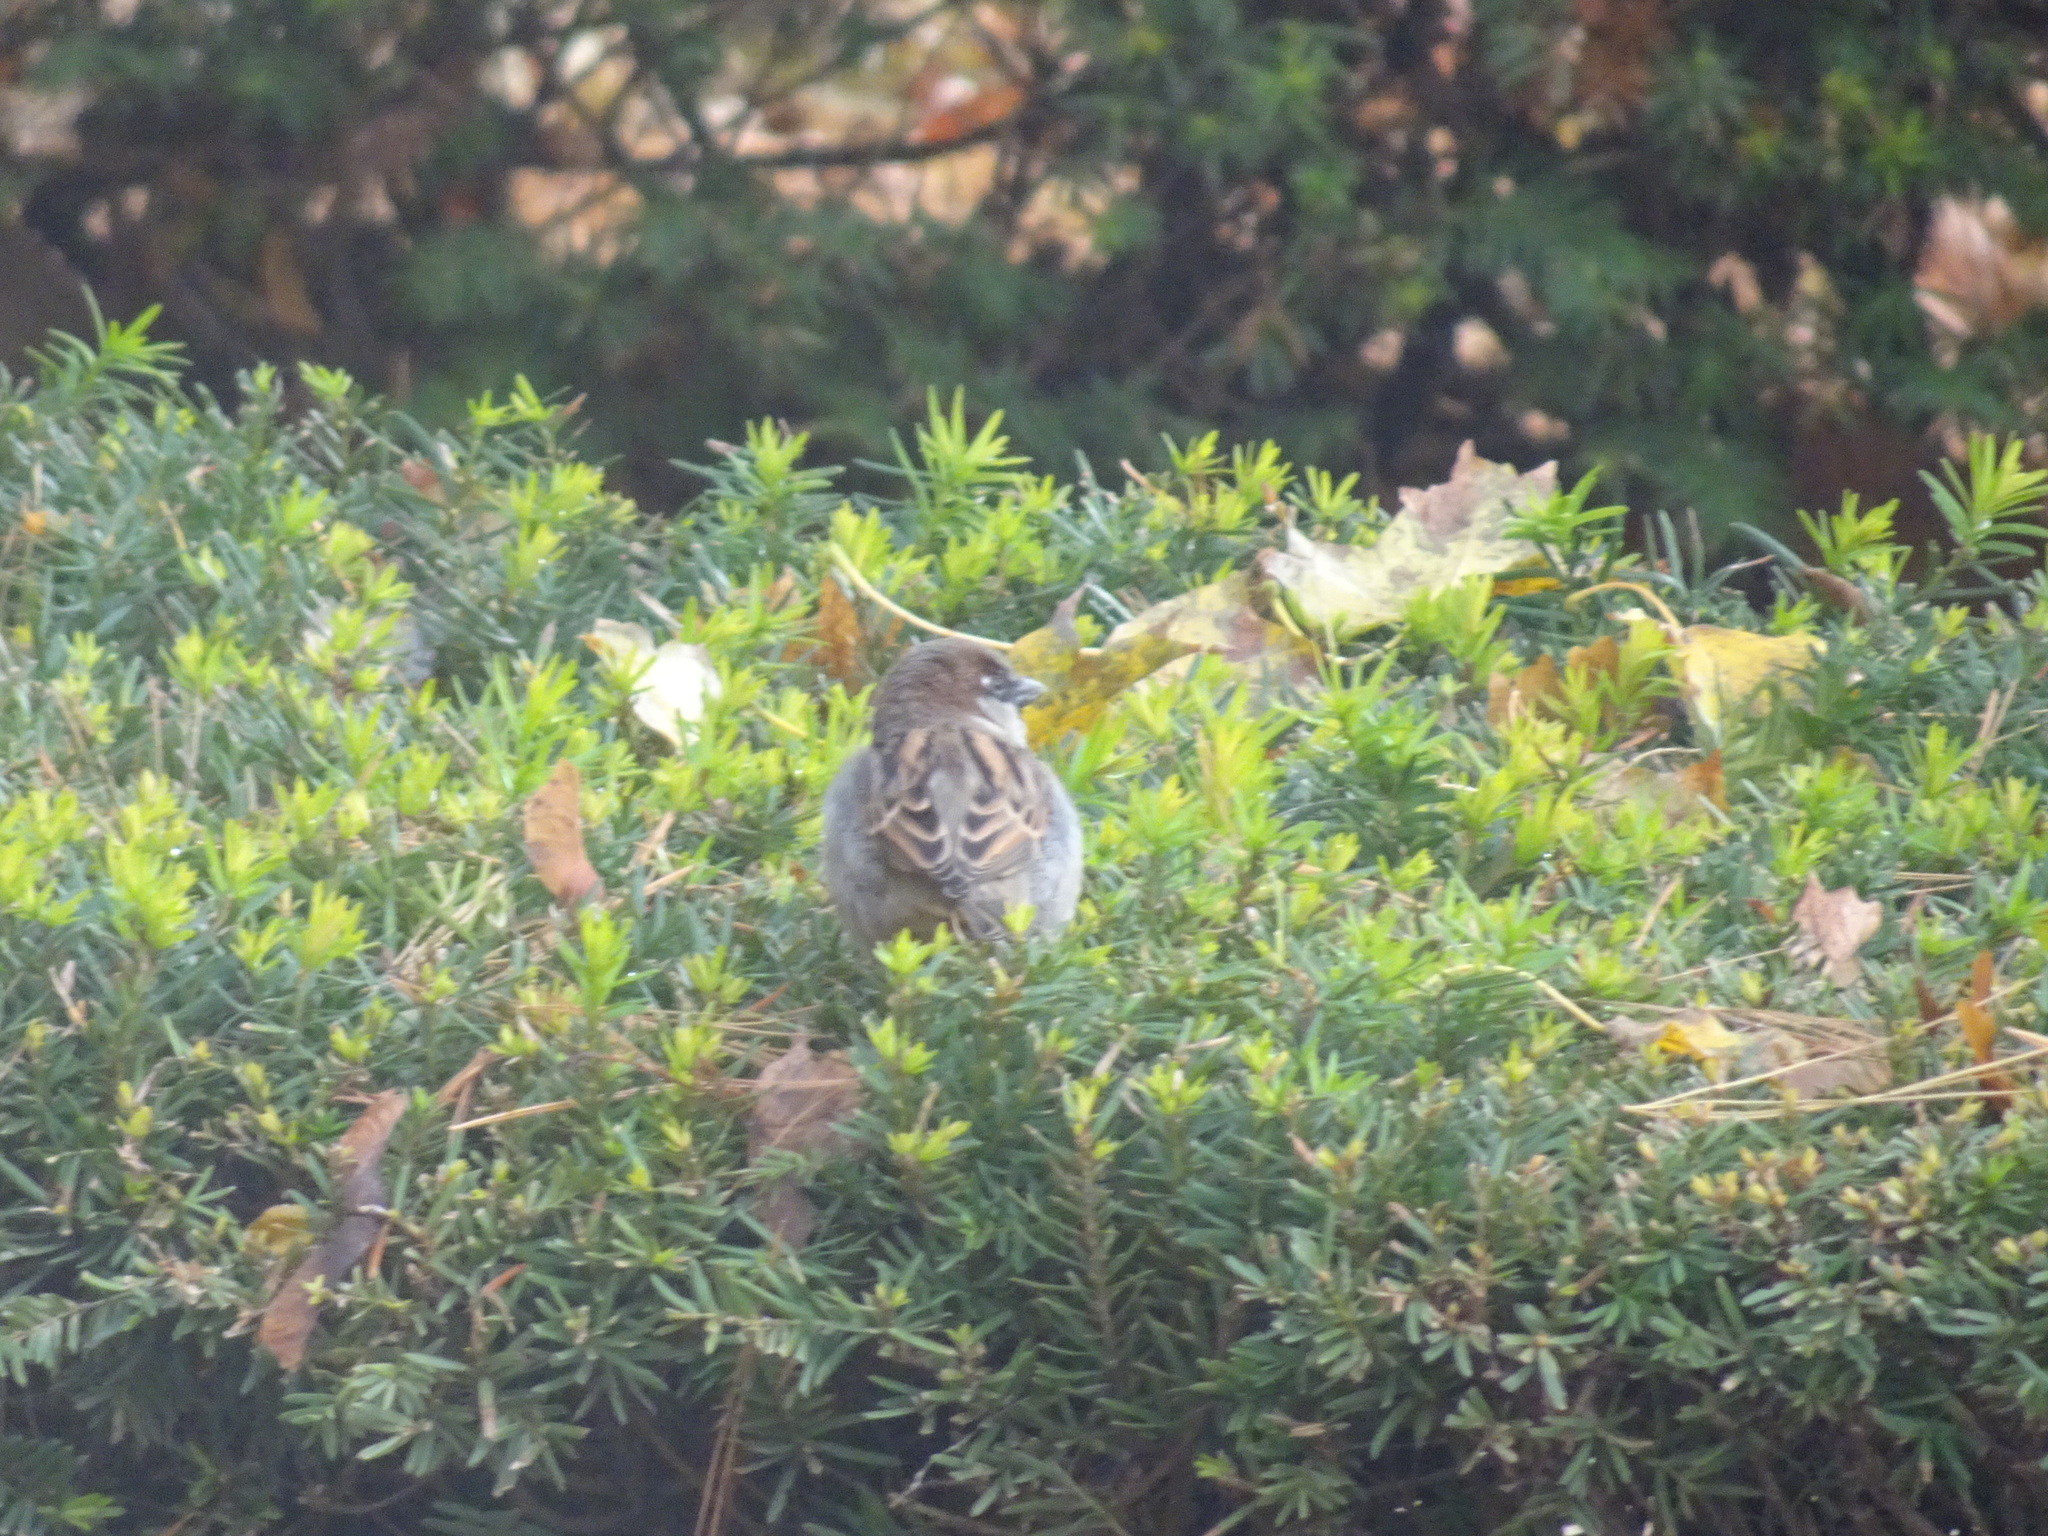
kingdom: Animalia
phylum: Chordata
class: Aves
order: Passeriformes
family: Passeridae
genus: Passer
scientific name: Passer domesticus
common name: House sparrow
